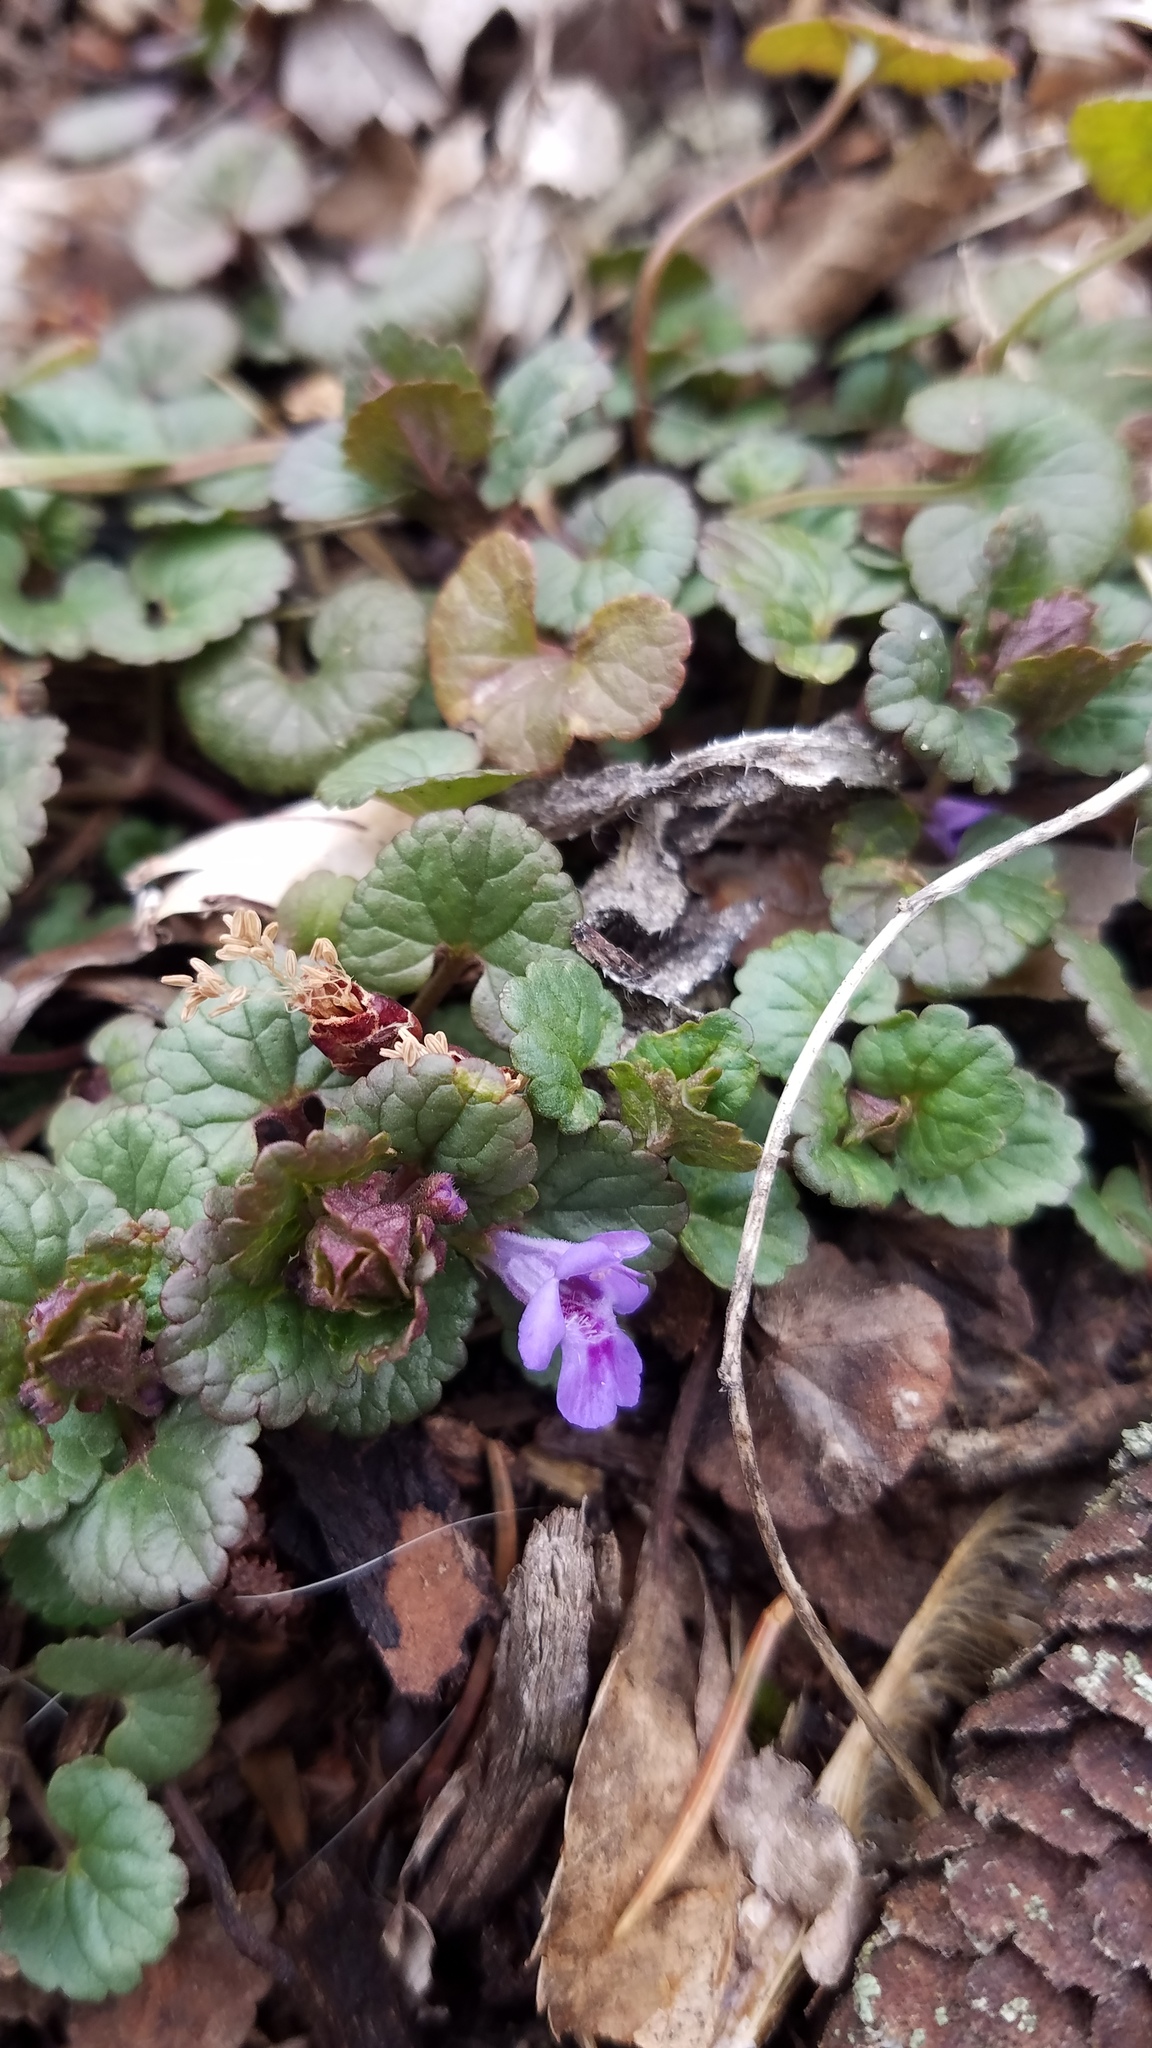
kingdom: Plantae
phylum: Tracheophyta
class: Magnoliopsida
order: Lamiales
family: Lamiaceae
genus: Glechoma
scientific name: Glechoma hederacea
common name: Ground ivy
